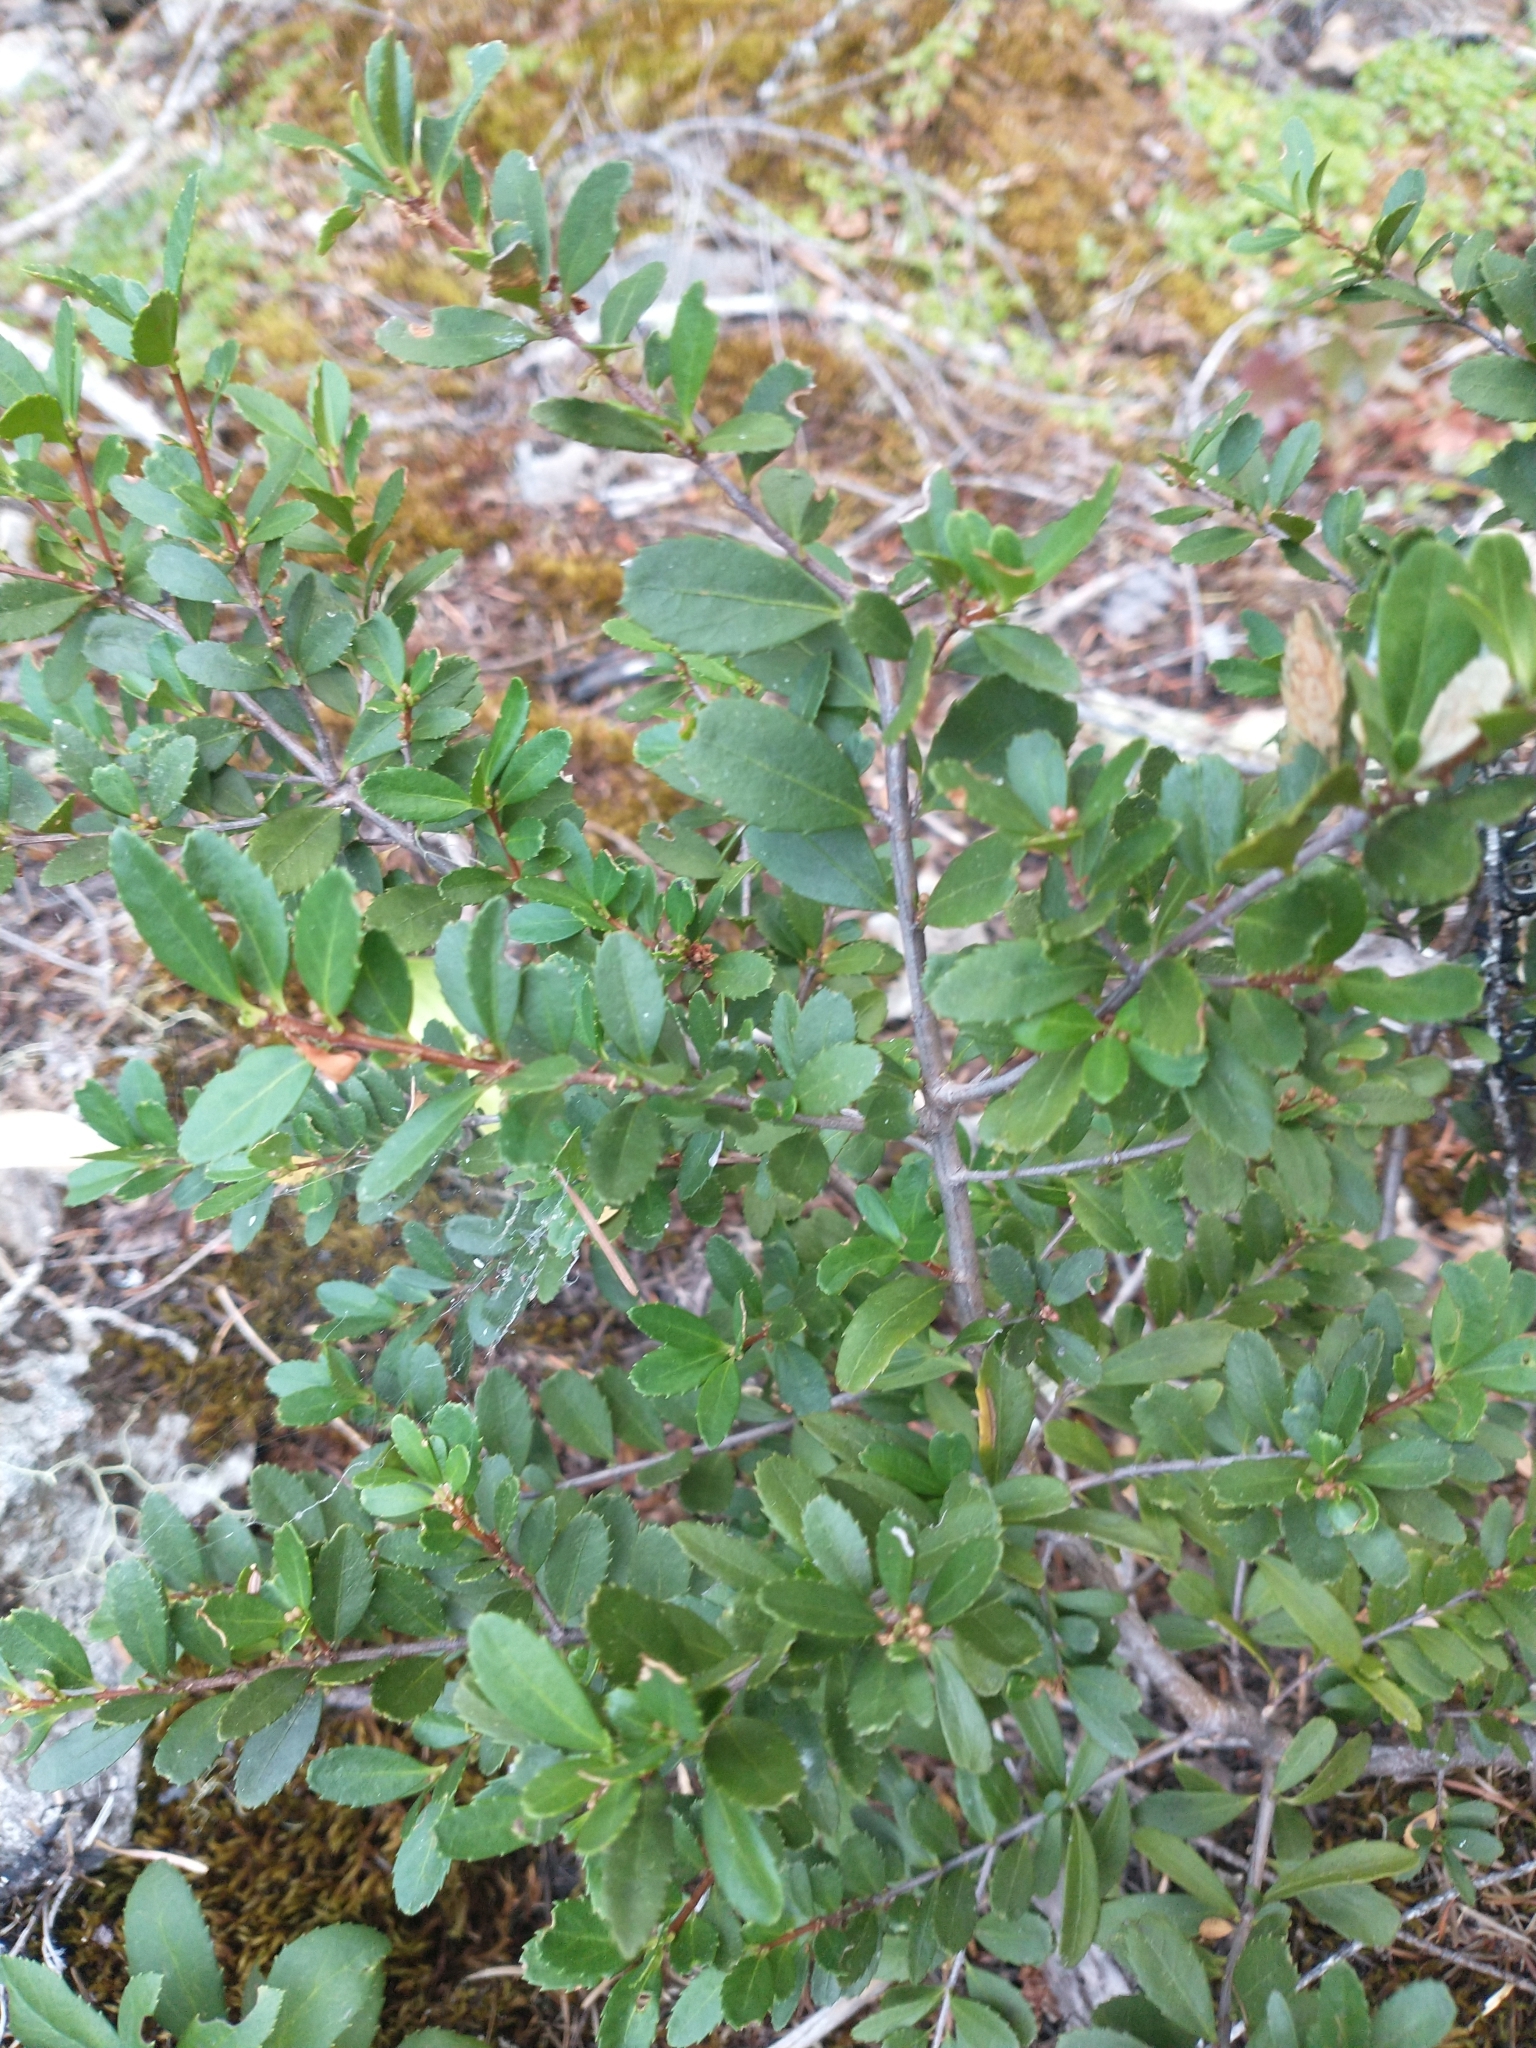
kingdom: Plantae
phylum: Tracheophyta
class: Magnoliopsida
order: Celastrales
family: Celastraceae
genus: Paxistima
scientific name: Paxistima myrsinites
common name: Mountain-lover
